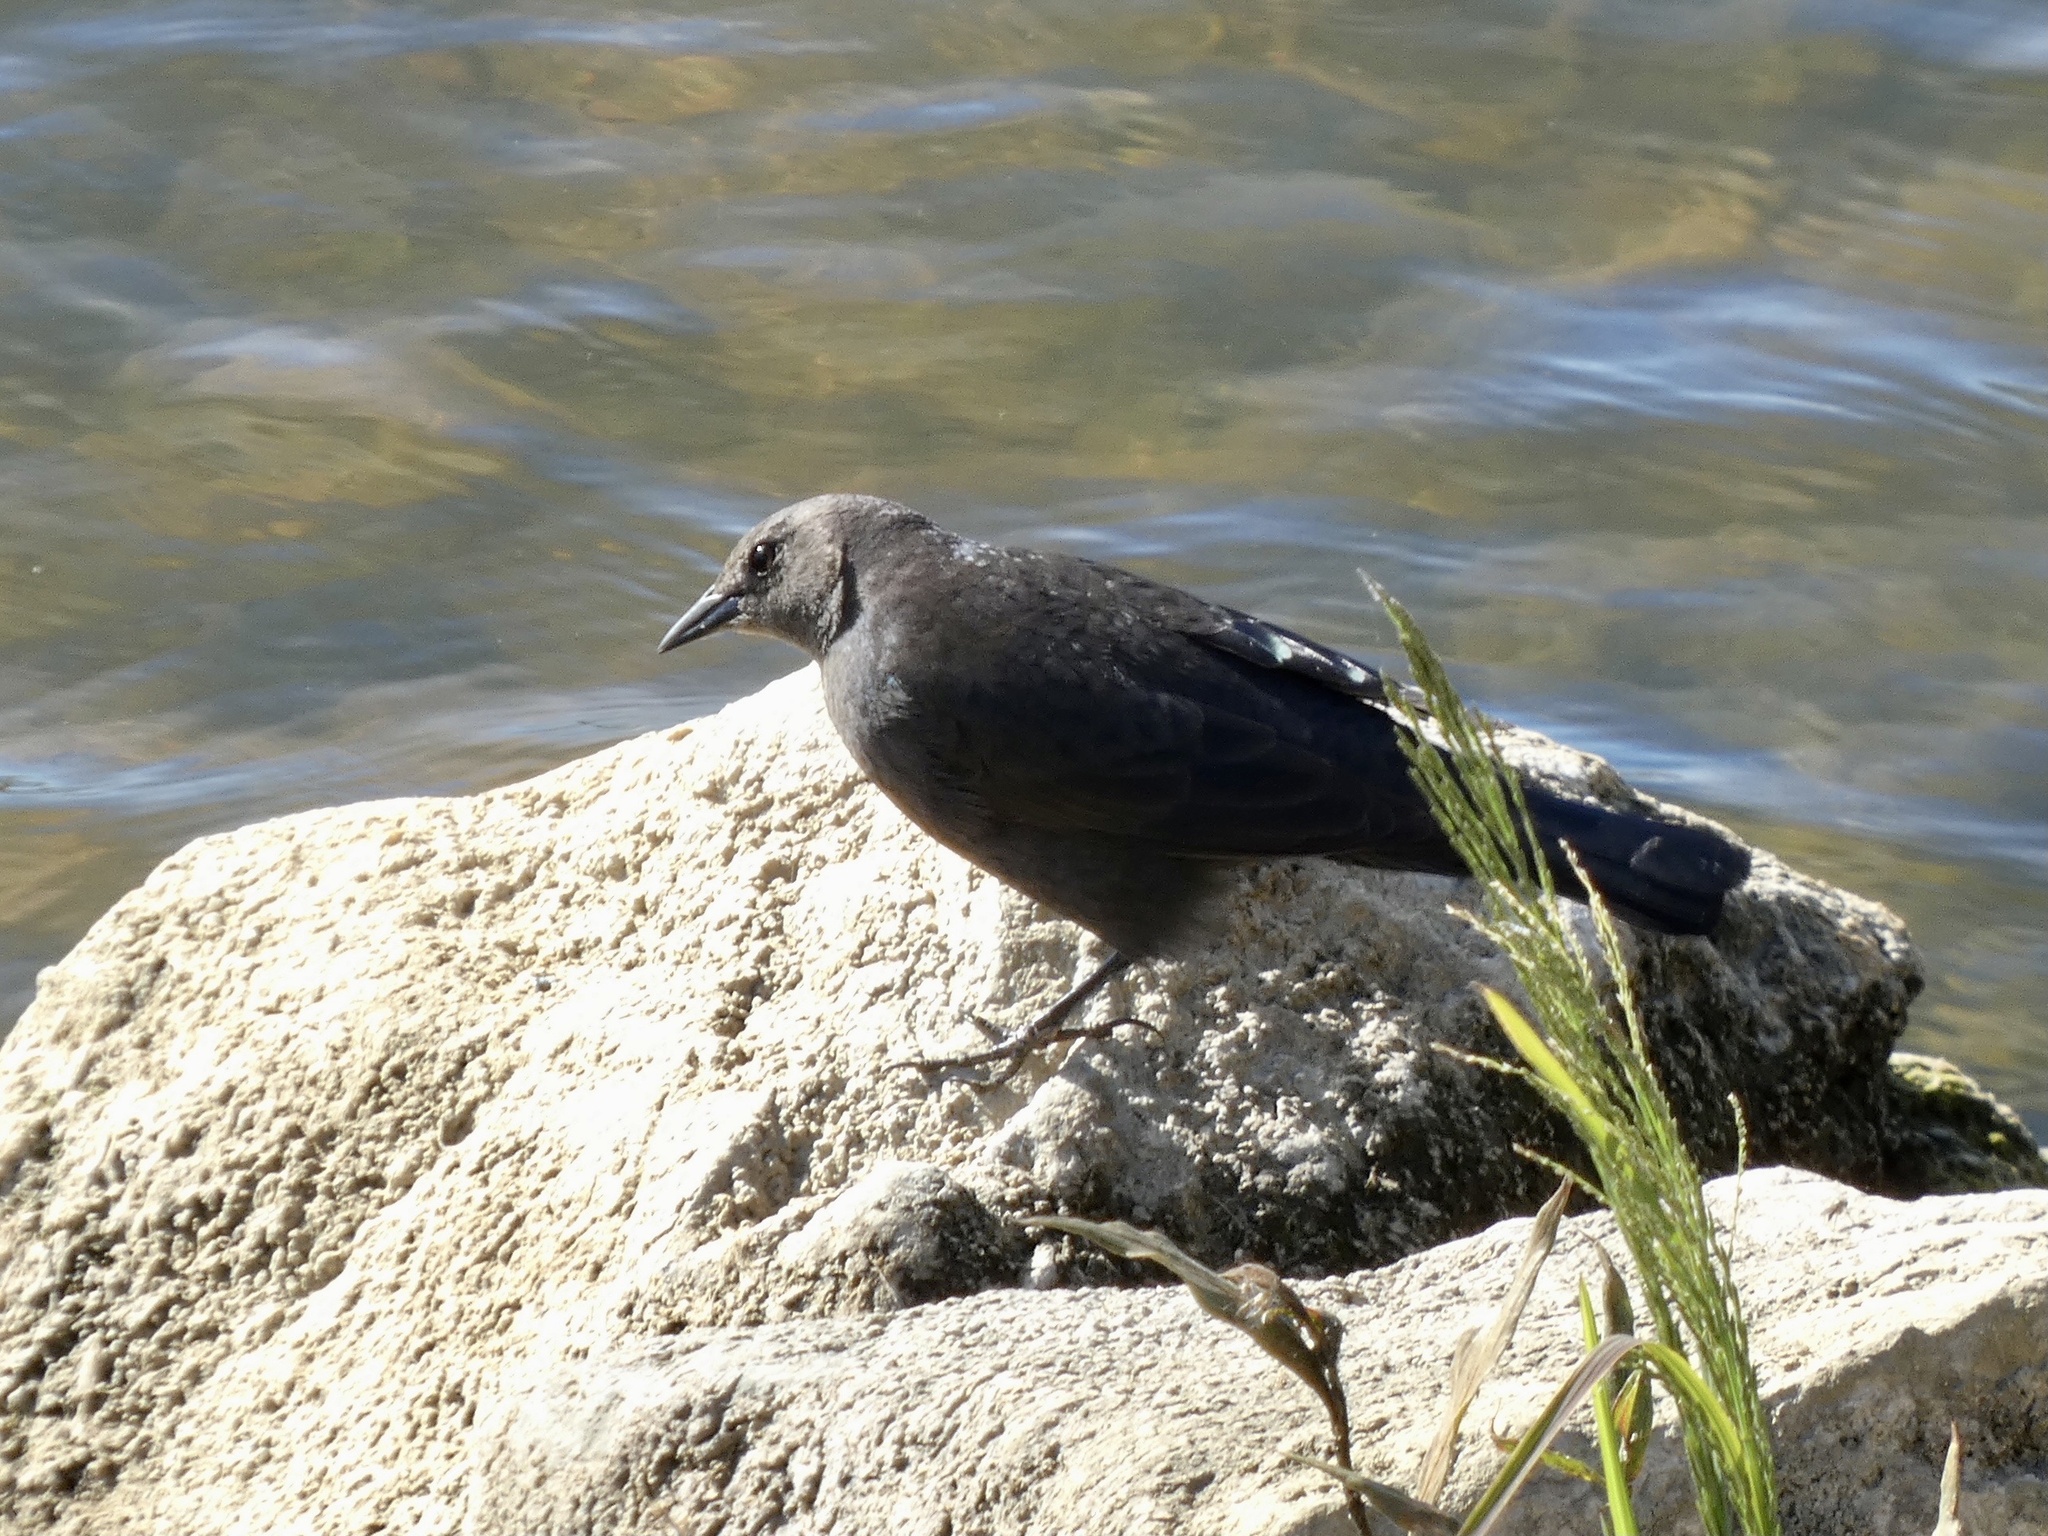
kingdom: Animalia
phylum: Chordata
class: Aves
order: Passeriformes
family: Icteridae
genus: Euphagus
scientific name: Euphagus cyanocephalus
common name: Brewer's blackbird
